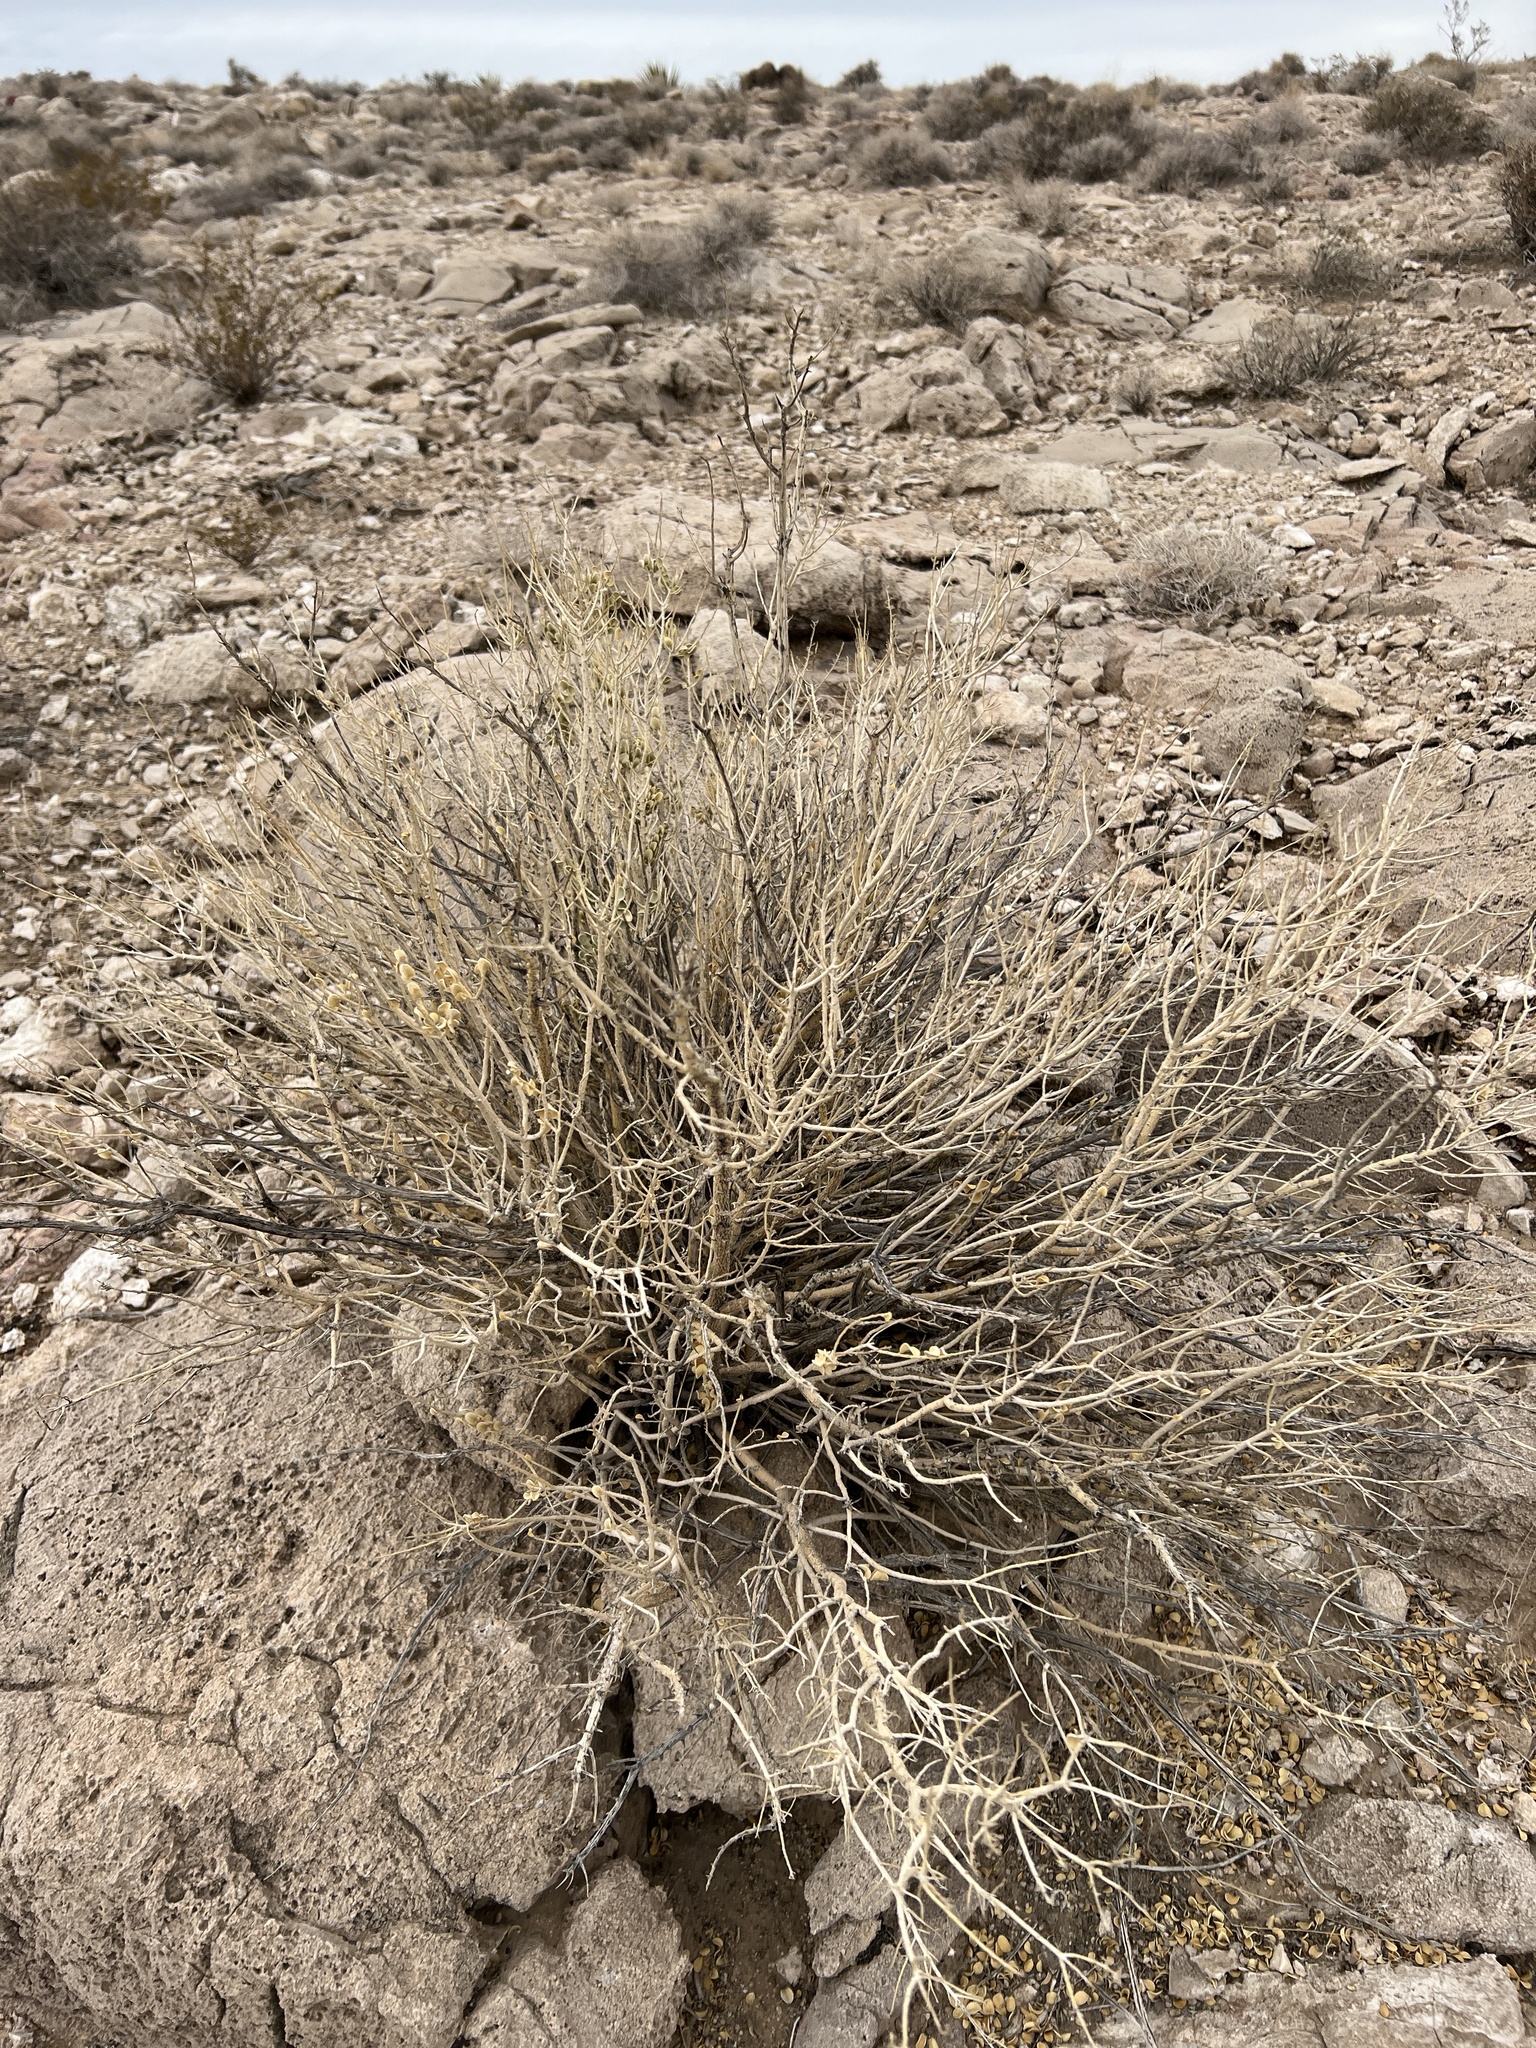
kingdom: Plantae
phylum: Tracheophyta
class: Magnoliopsida
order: Celastrales
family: Celastraceae
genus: Mortonia
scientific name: Mortonia utahensis
